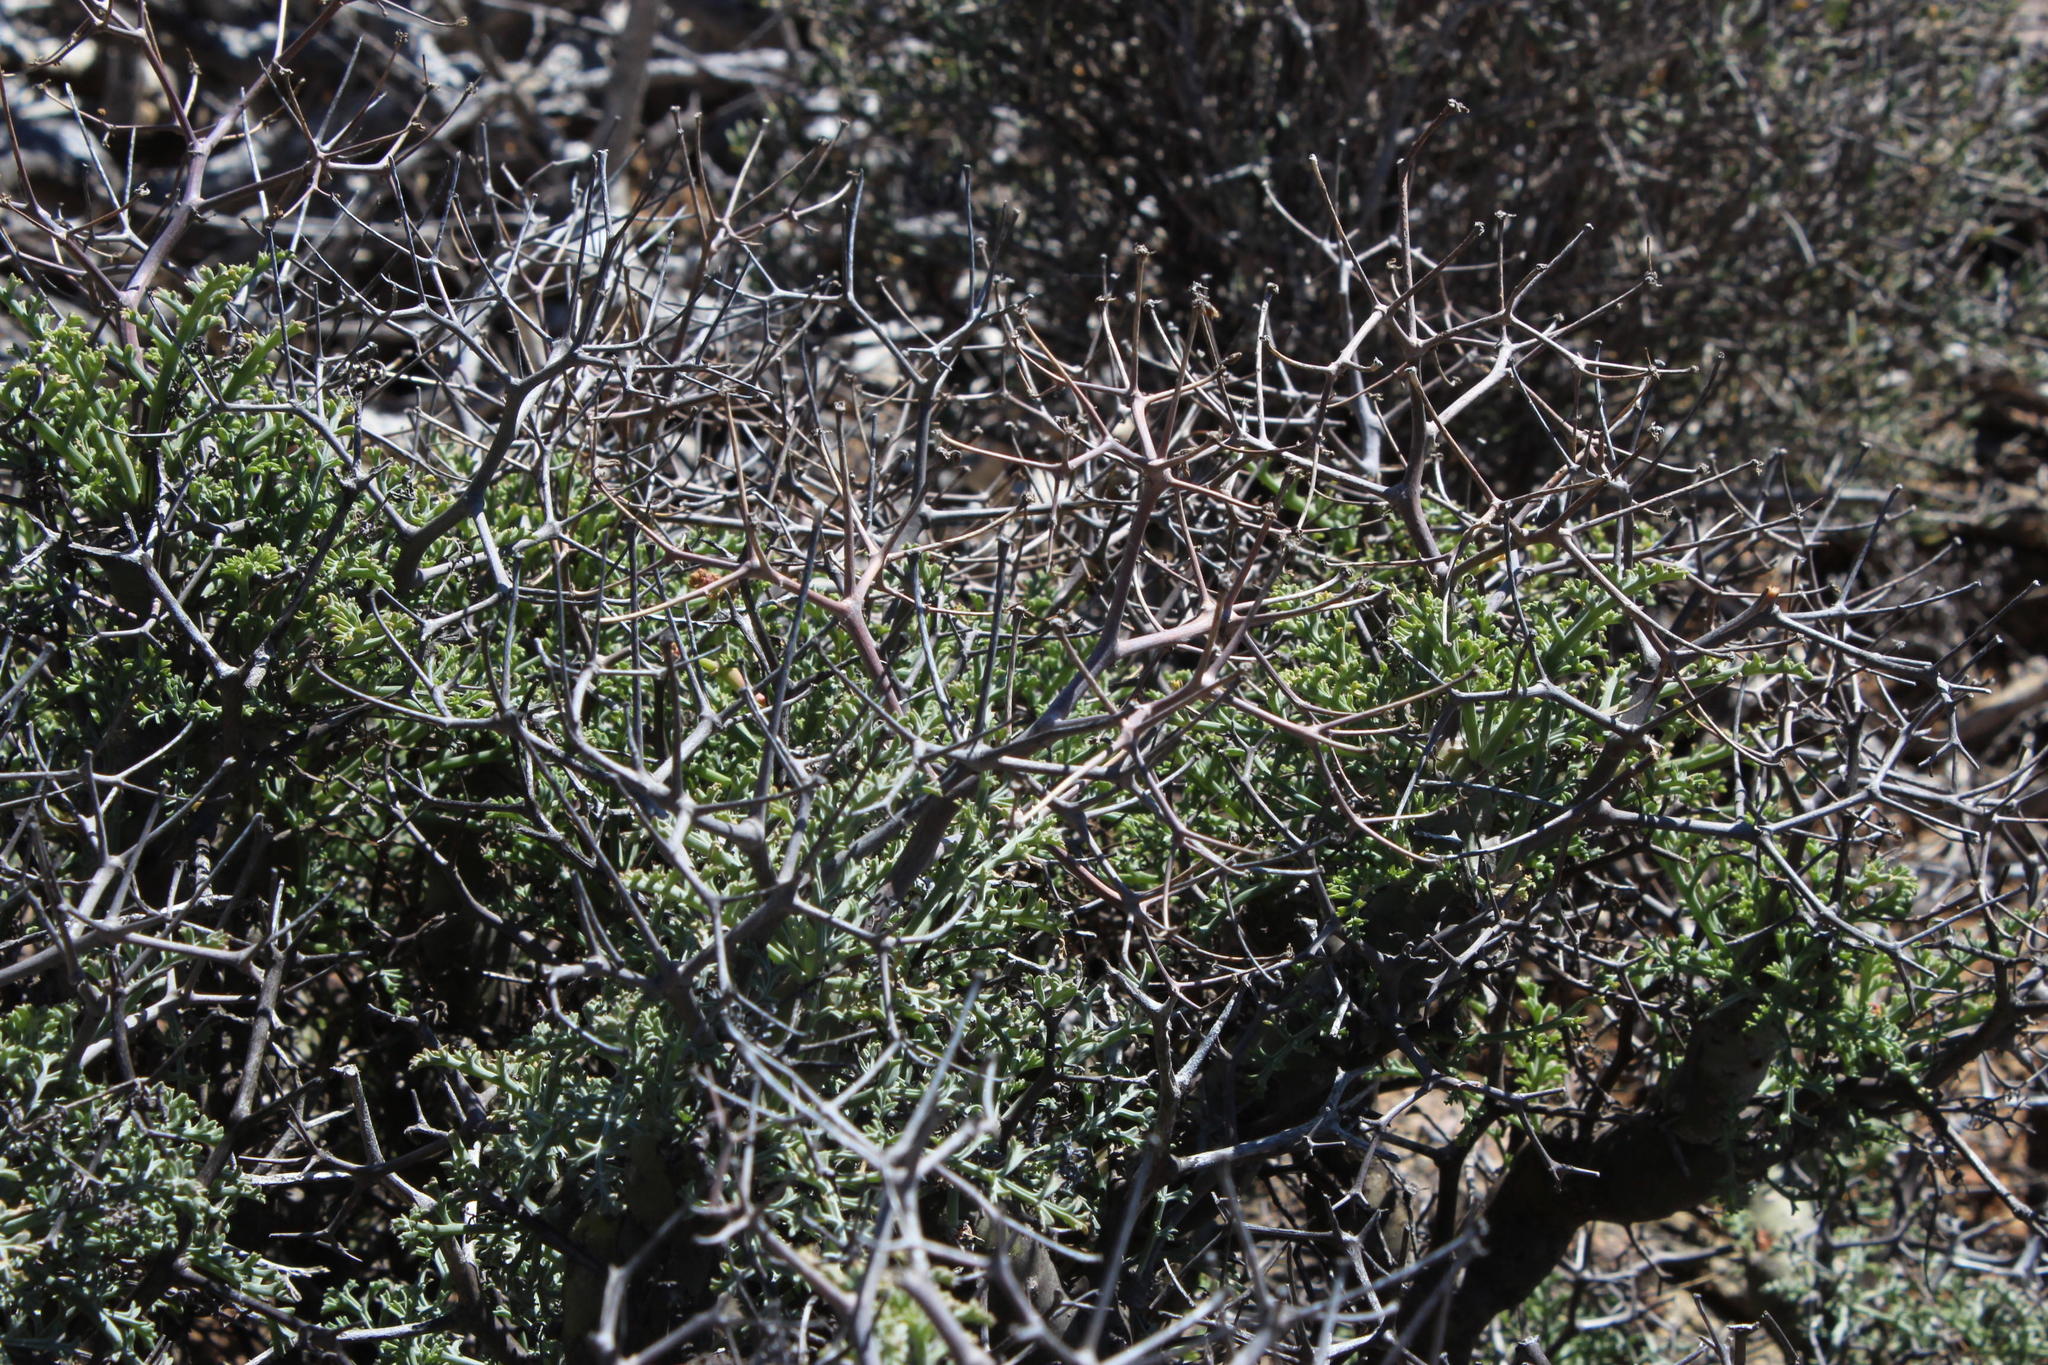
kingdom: Plantae
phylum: Tracheophyta
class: Magnoliopsida
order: Geraniales
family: Geraniaceae
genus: Pelargonium
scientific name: Pelargonium crithmifolium
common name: Samphire-leaf pelargonium
